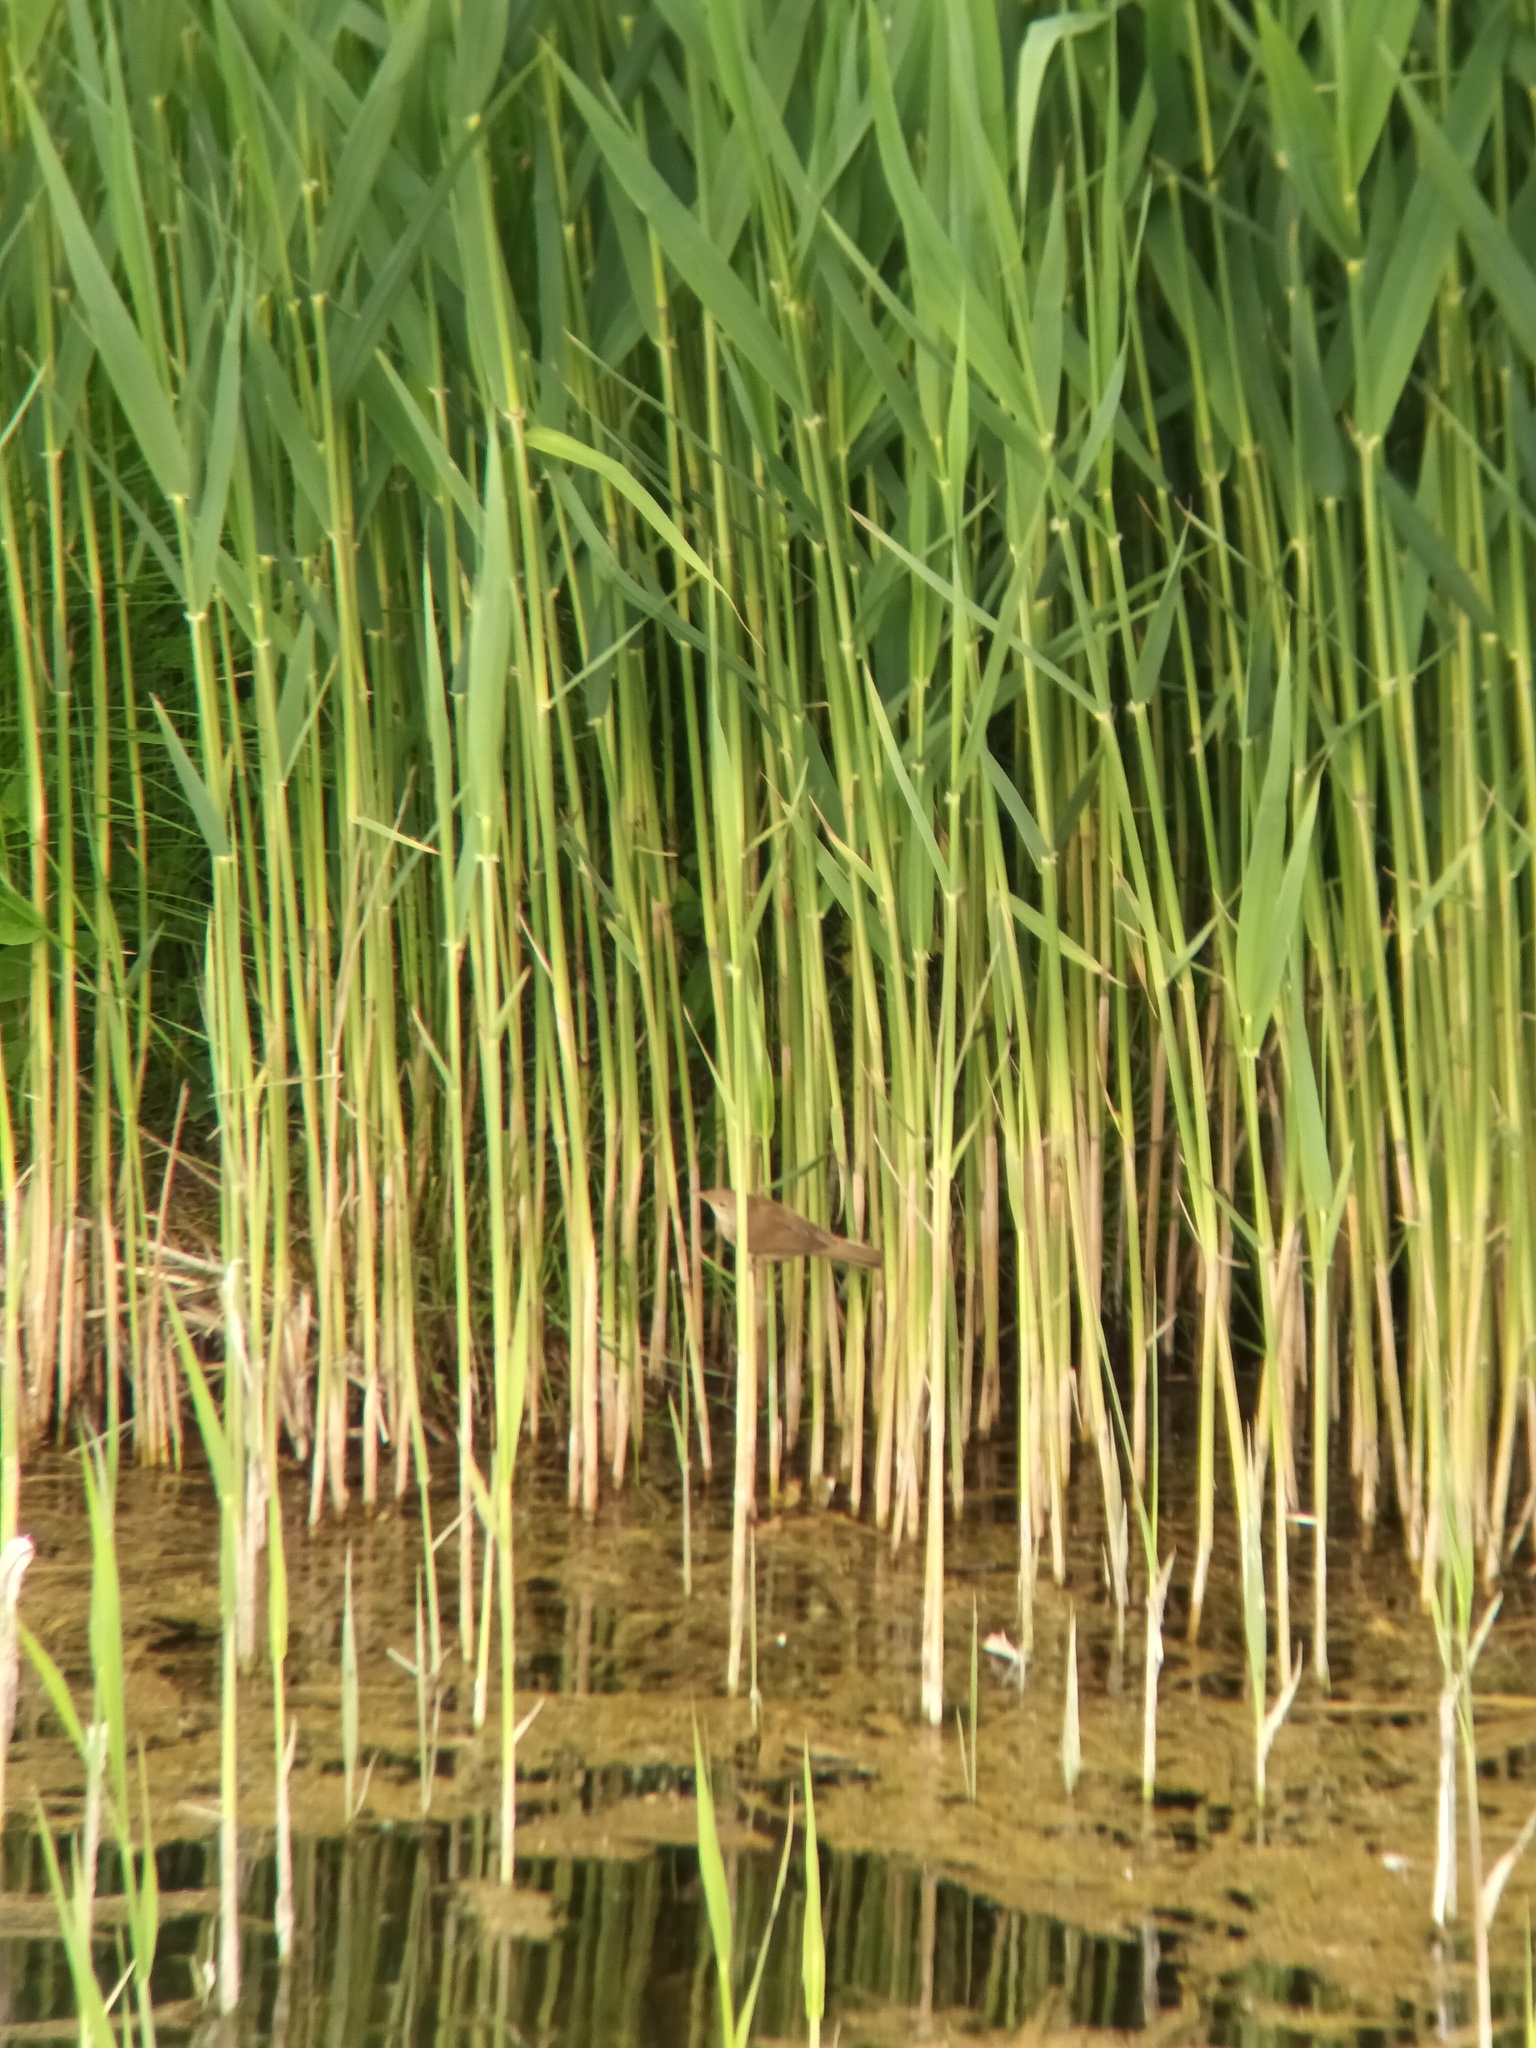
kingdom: Animalia
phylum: Chordata
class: Aves
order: Passeriformes
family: Acrocephalidae
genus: Acrocephalus
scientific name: Acrocephalus scirpaceus
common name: Eurasian reed warbler
